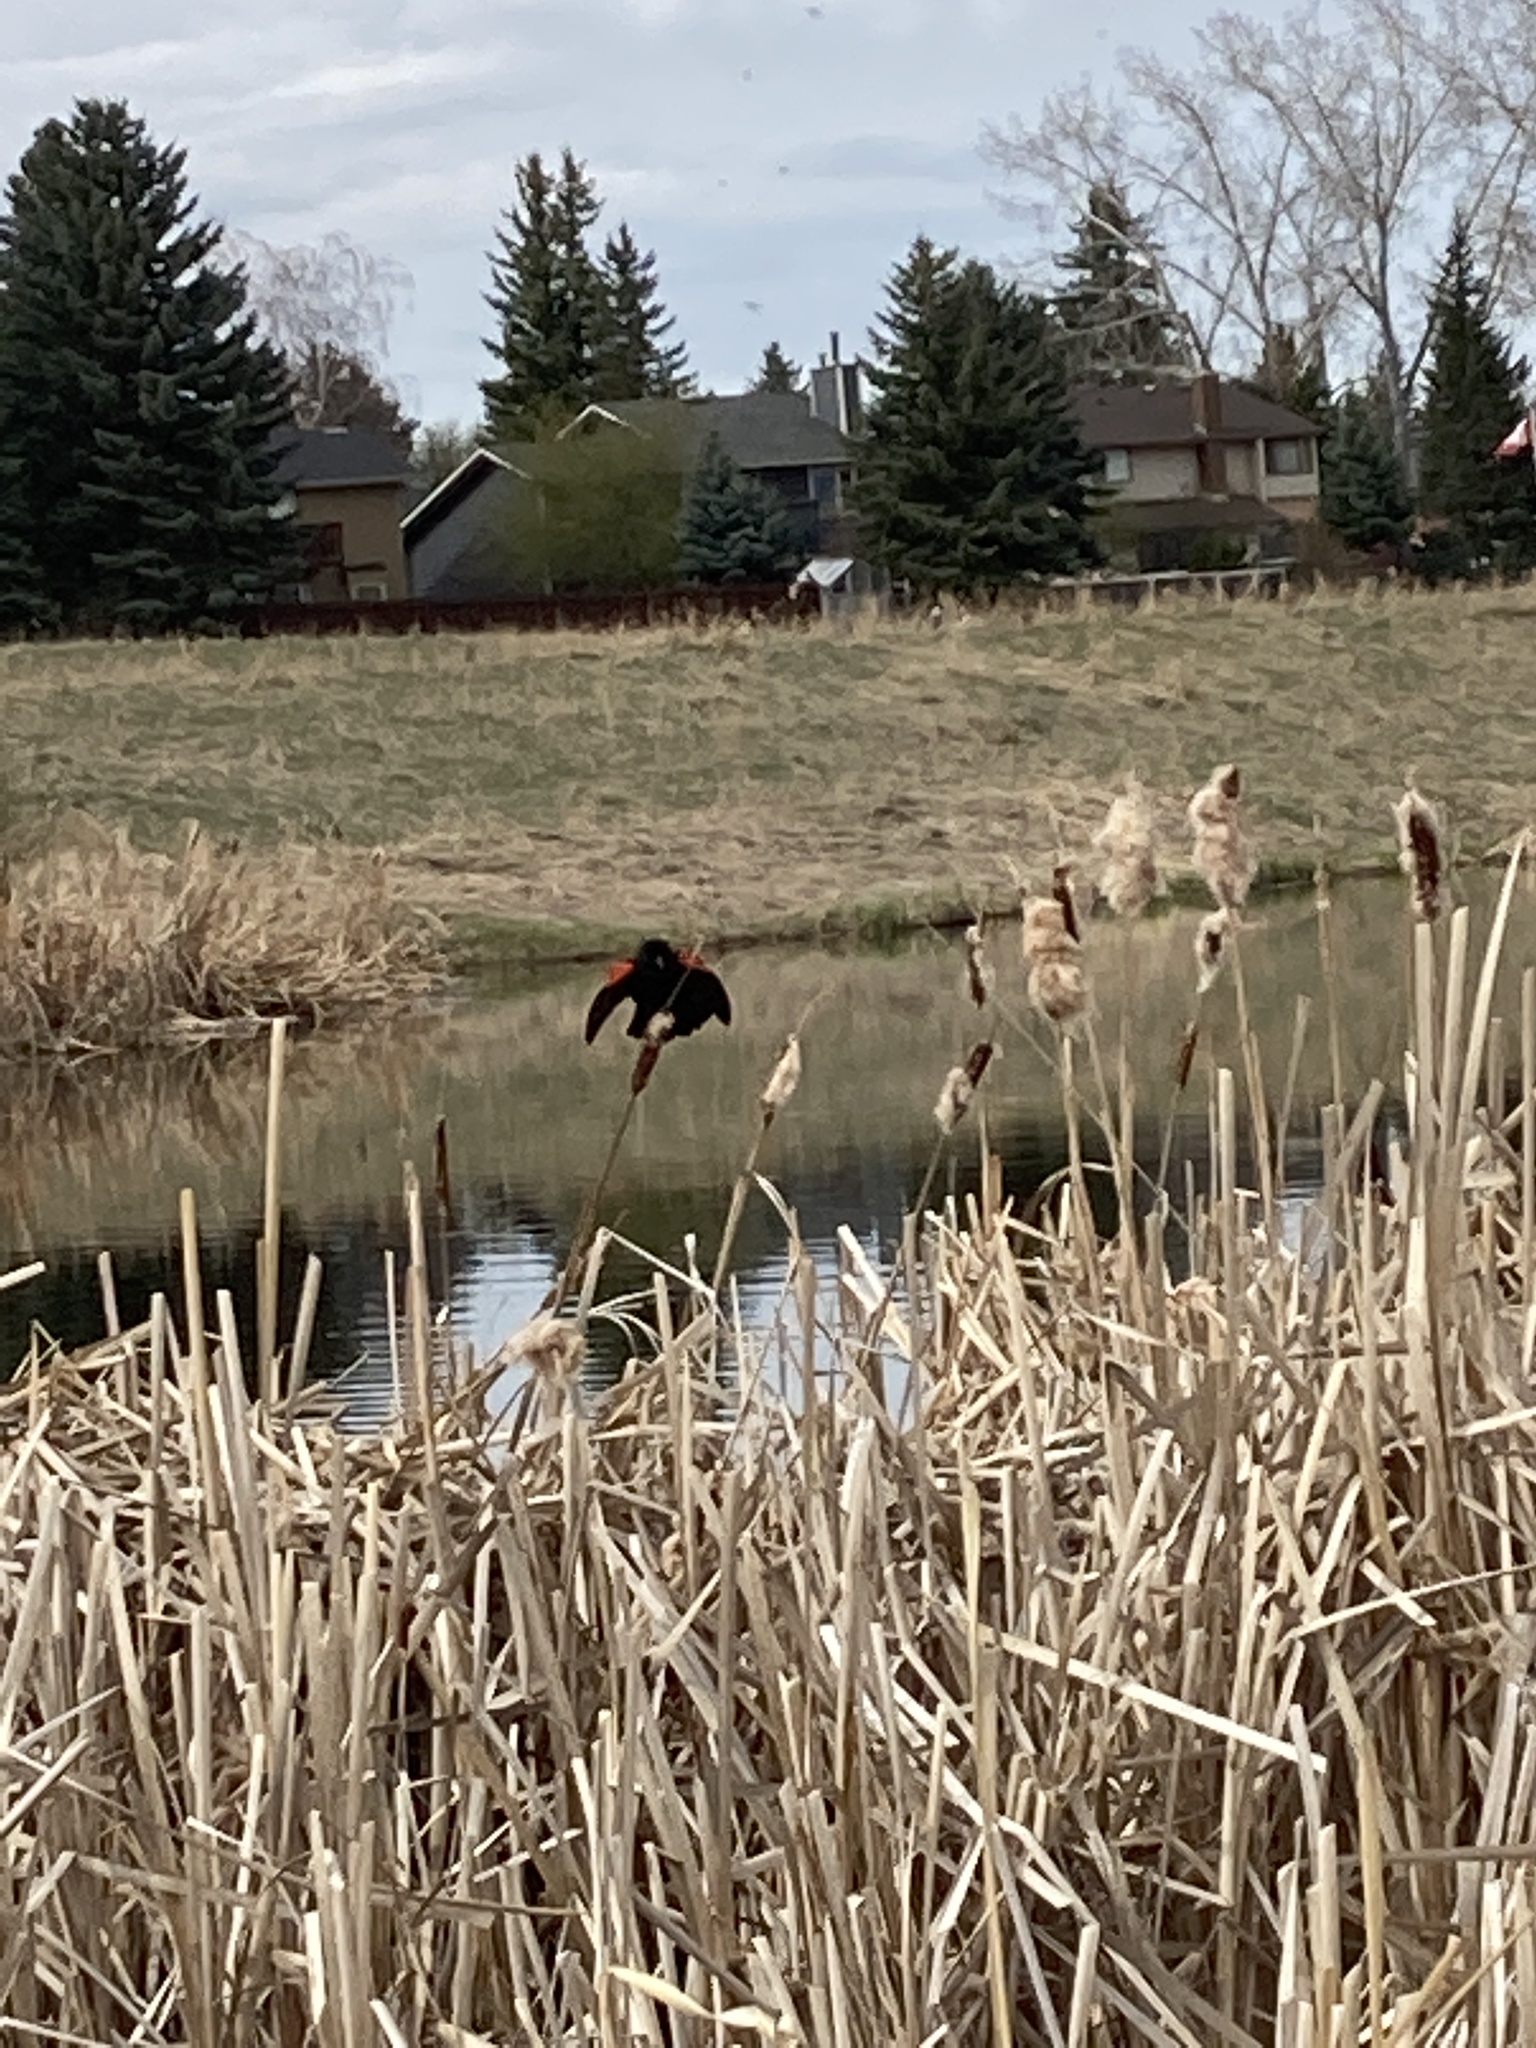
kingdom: Animalia
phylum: Chordata
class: Aves
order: Passeriformes
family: Icteridae
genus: Agelaius
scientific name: Agelaius phoeniceus
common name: Red-winged blackbird
